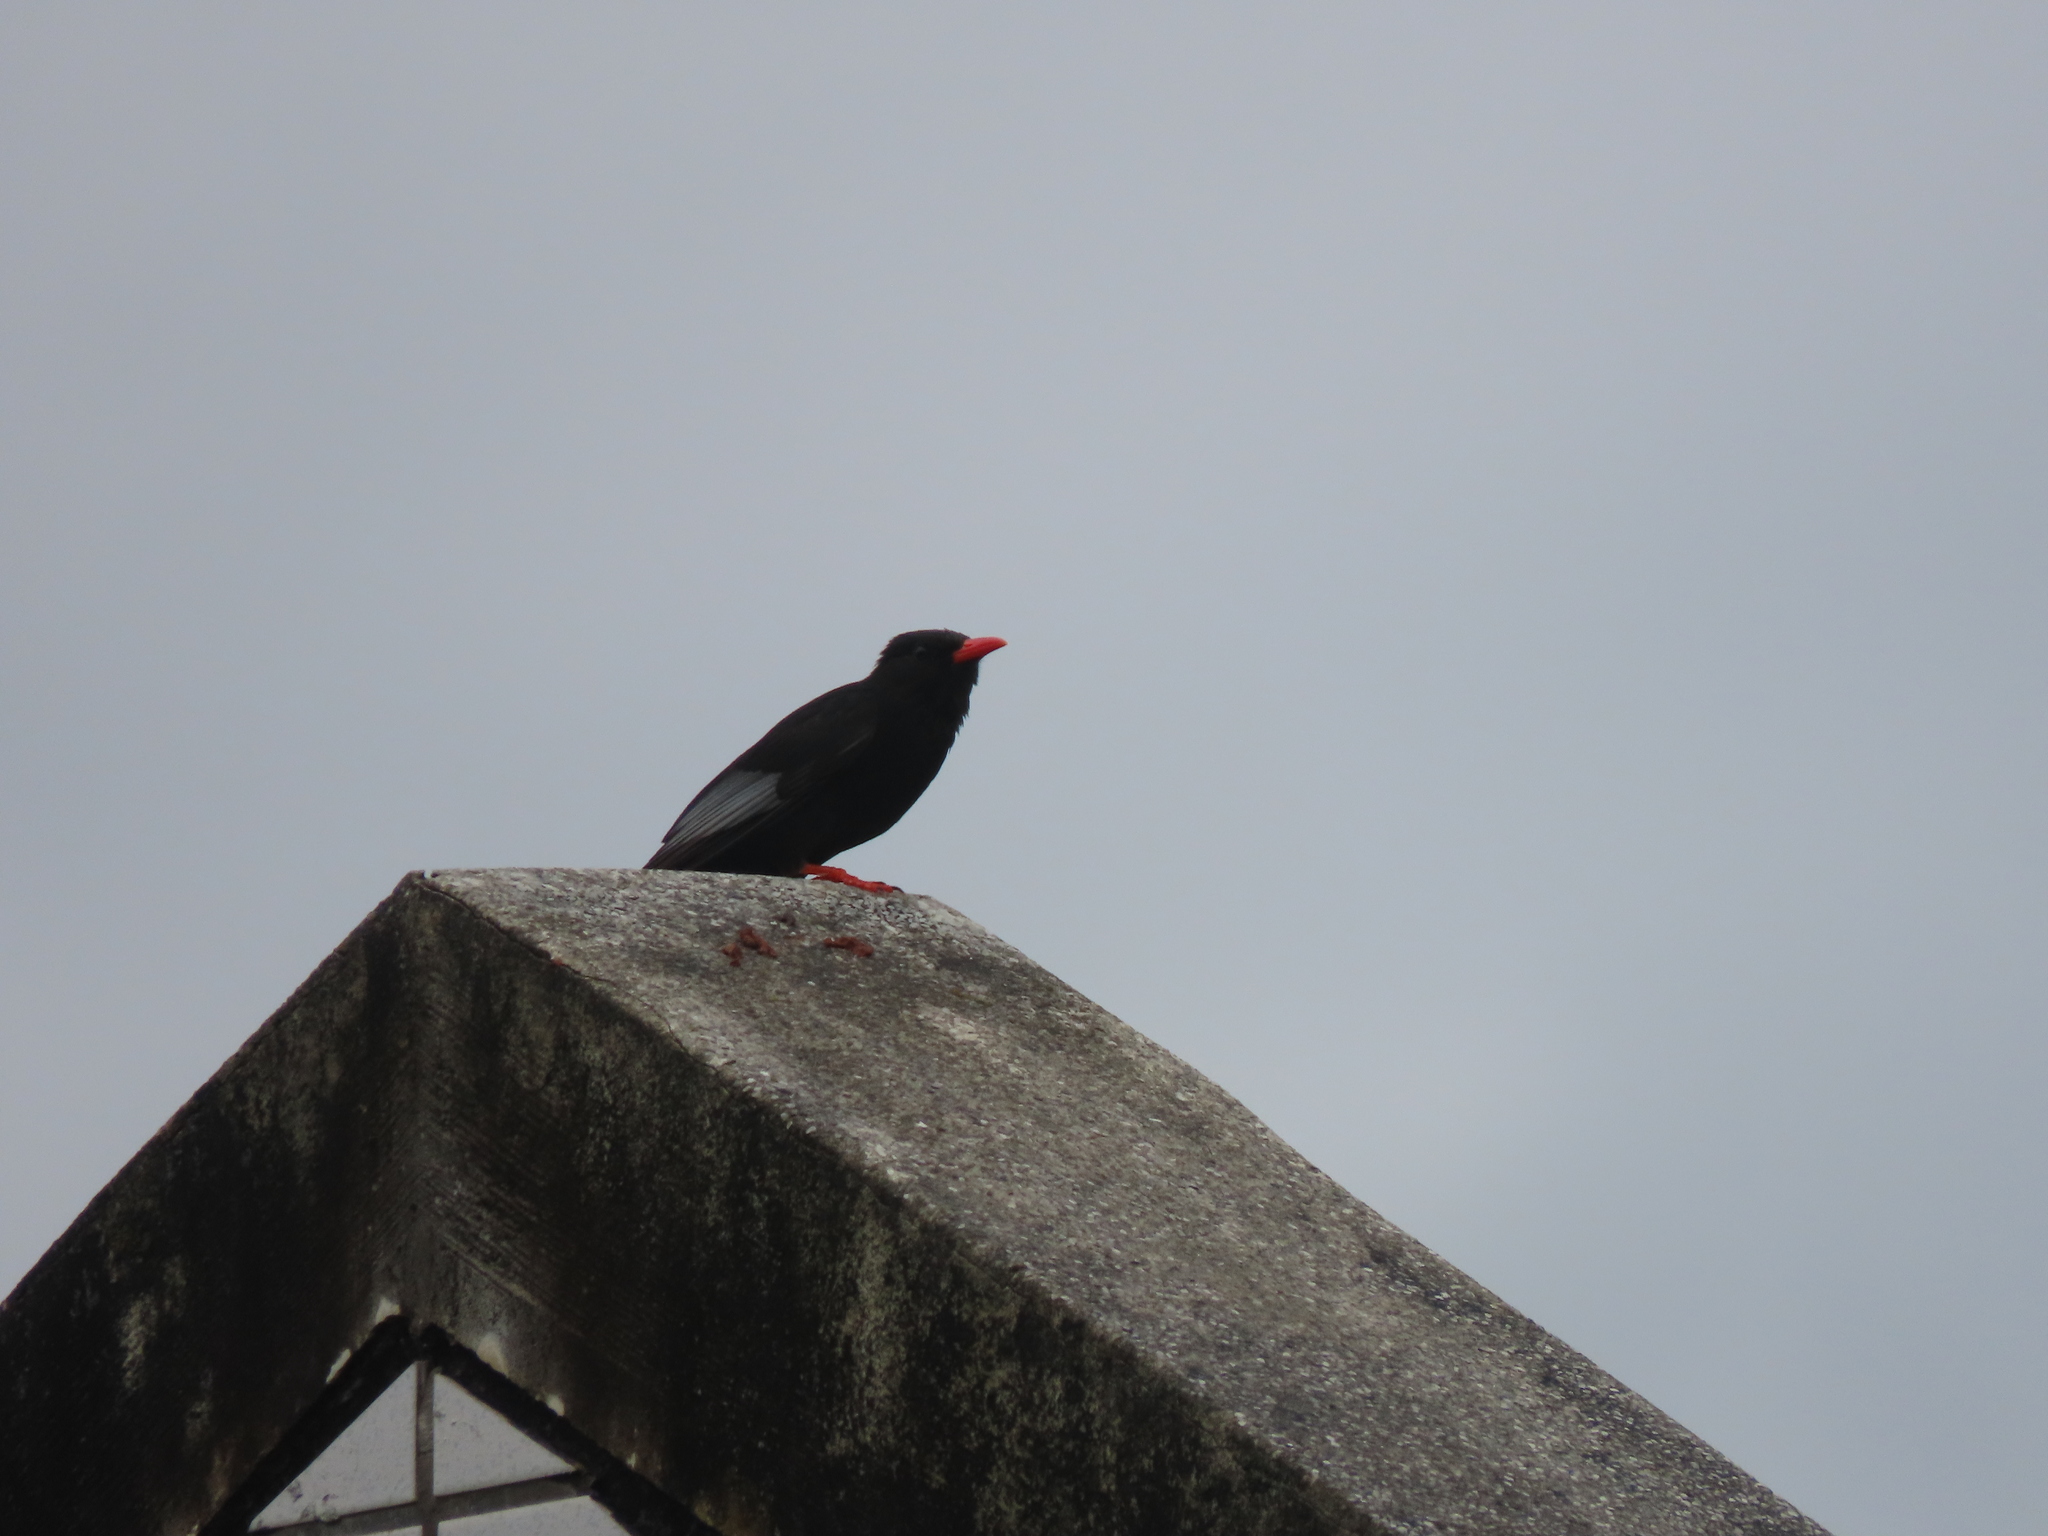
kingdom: Animalia
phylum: Chordata
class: Aves
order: Passeriformes
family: Pycnonotidae
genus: Hypsipetes
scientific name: Hypsipetes leucocephalus
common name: Black bulbul
